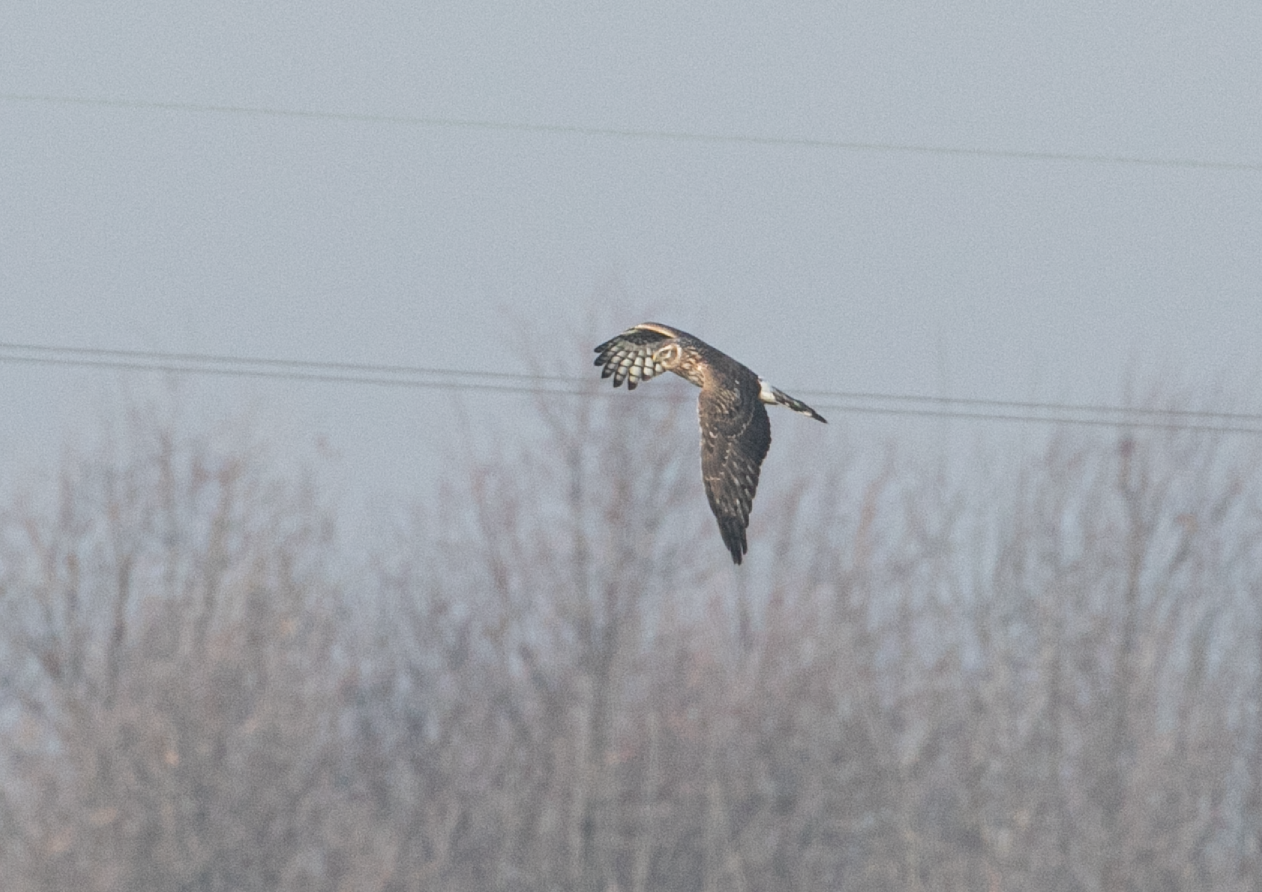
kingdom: Animalia
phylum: Chordata
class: Aves
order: Accipitriformes
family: Accipitridae
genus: Circus
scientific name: Circus cyaneus
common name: Hen harrier
